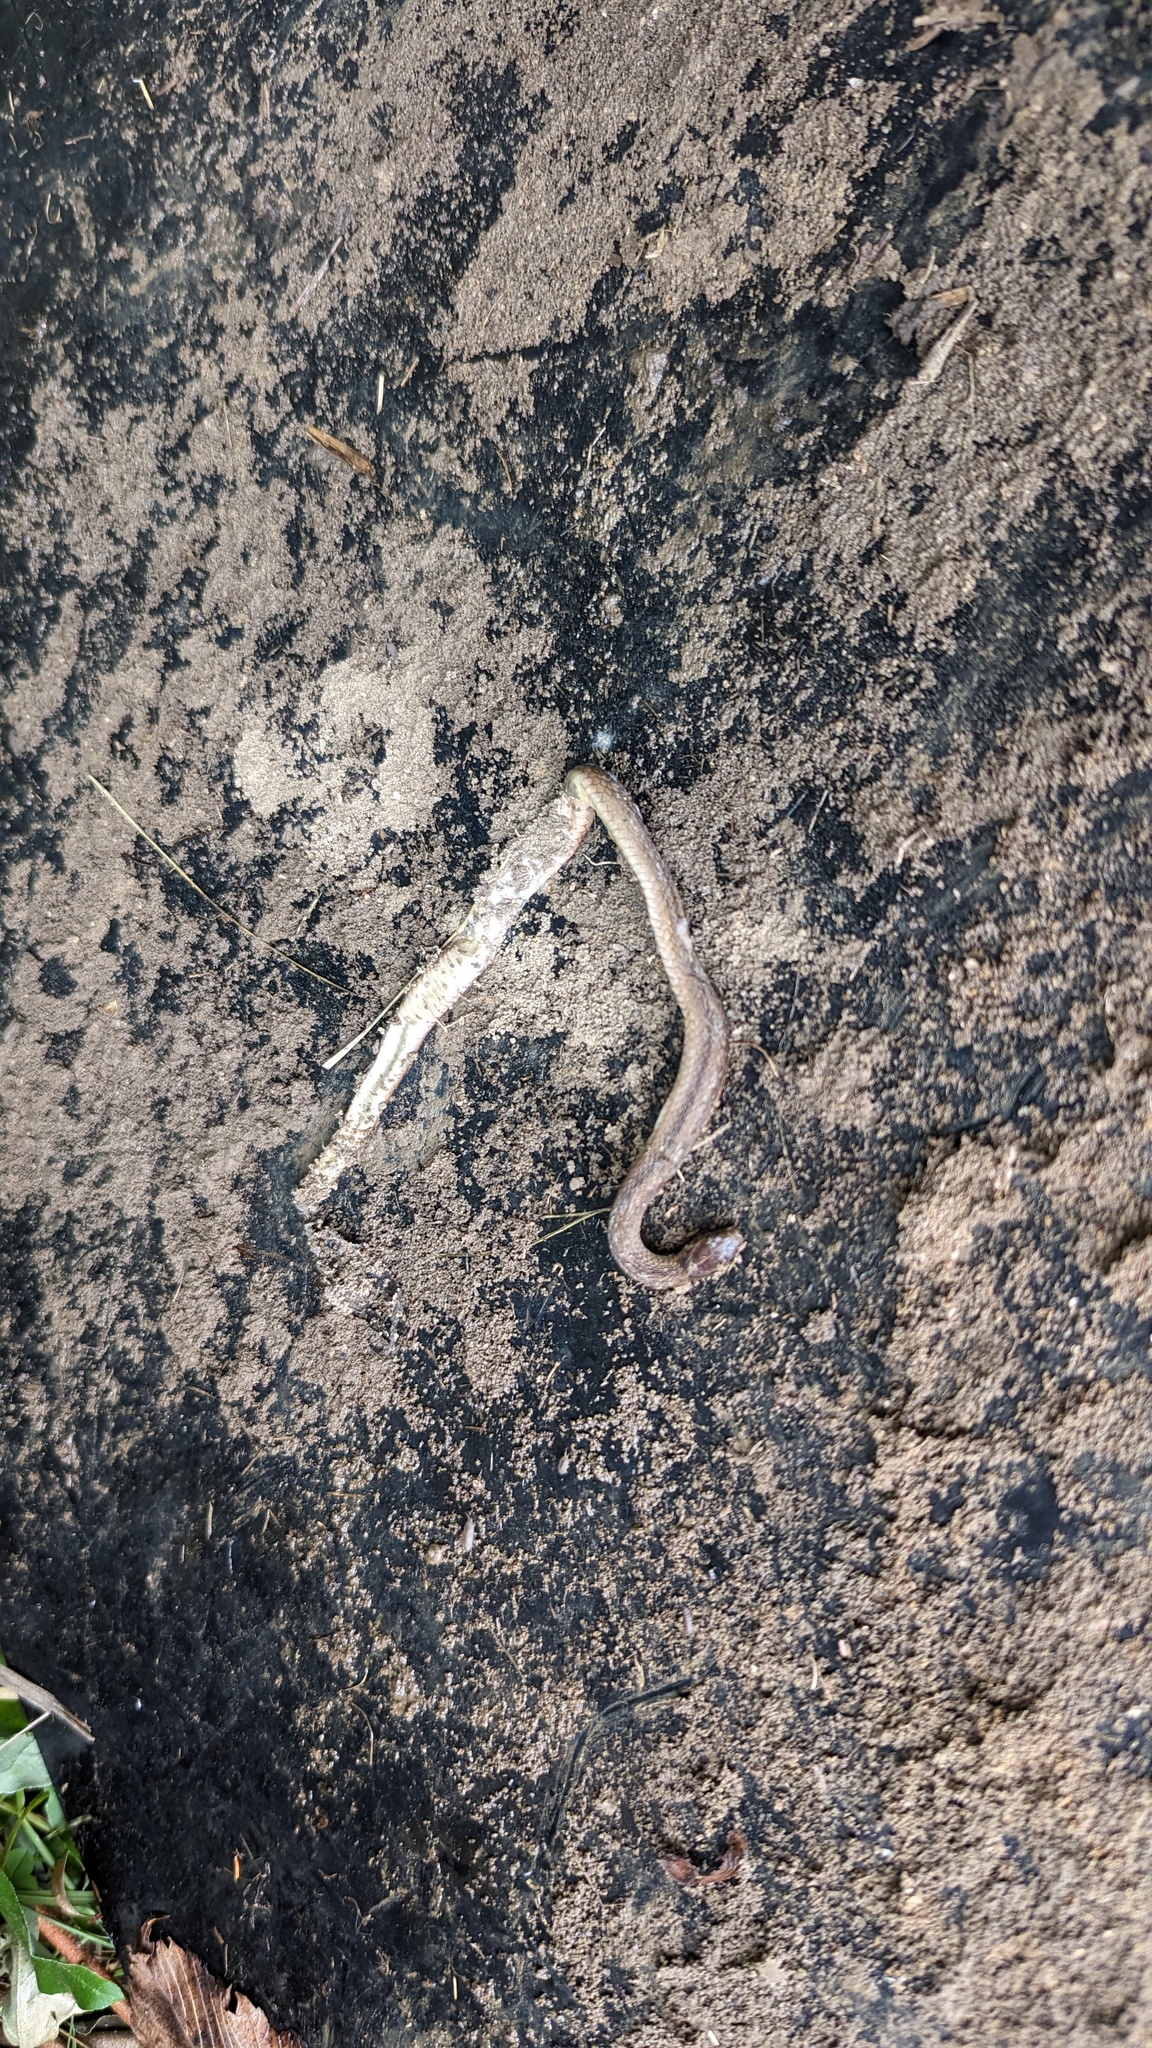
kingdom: Animalia
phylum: Chordata
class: Squamata
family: Colubridae
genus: Storeria
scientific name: Storeria dekayi
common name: (dekay’s) brown snake
